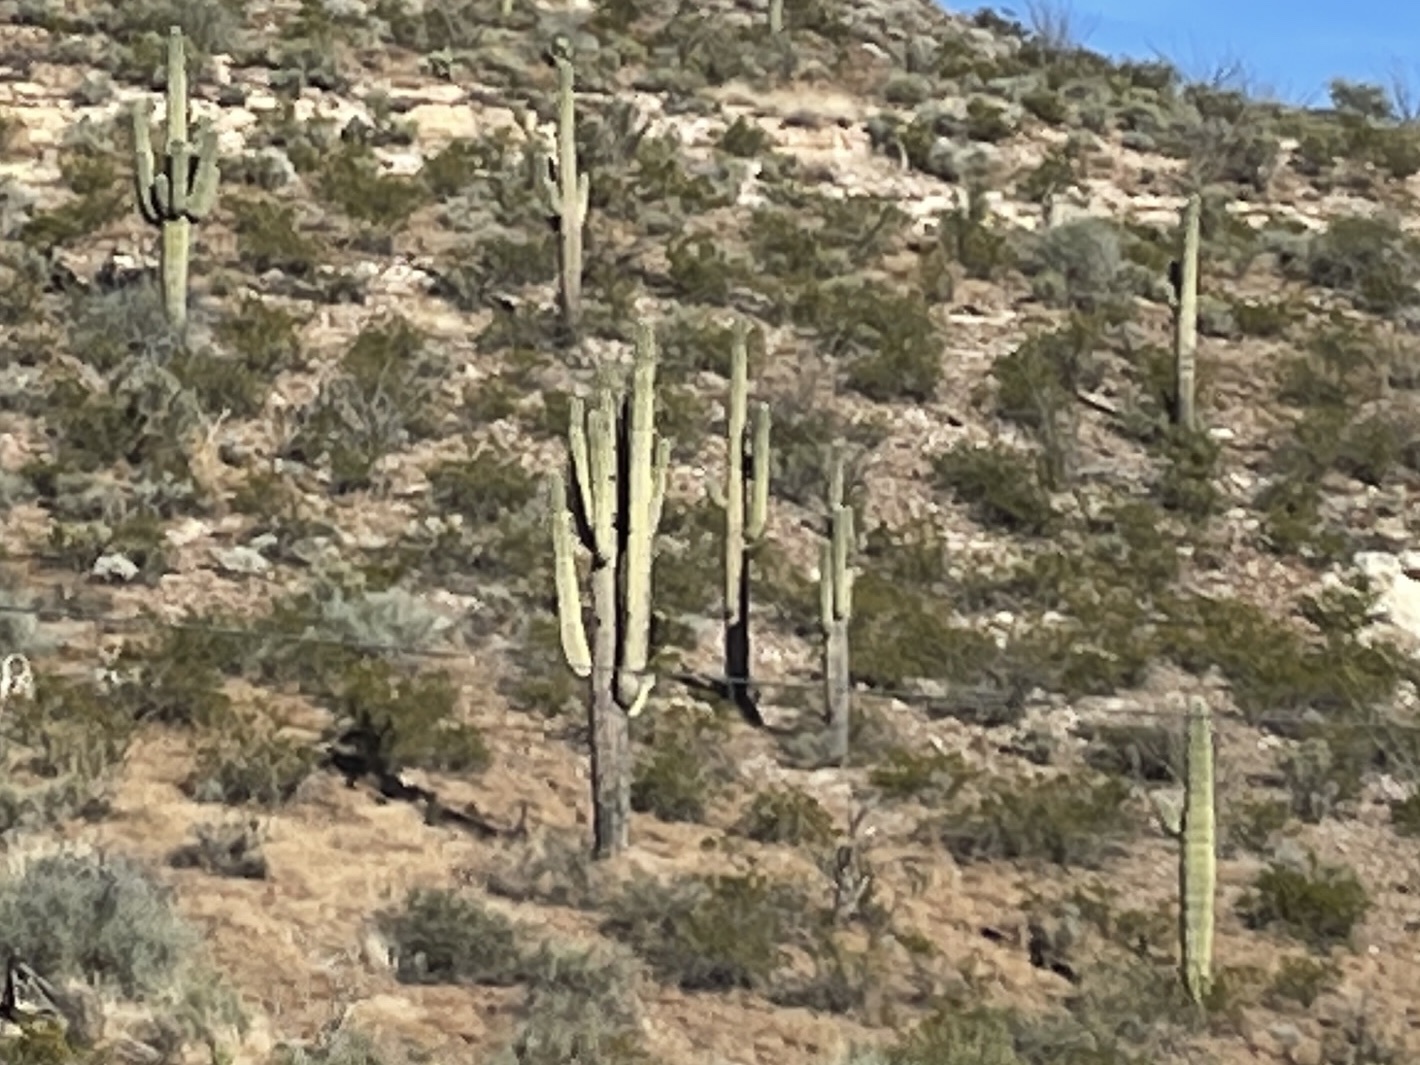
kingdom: Plantae
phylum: Tracheophyta
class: Magnoliopsida
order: Caryophyllales
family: Cactaceae
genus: Carnegiea
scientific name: Carnegiea gigantea
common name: Saguaro
